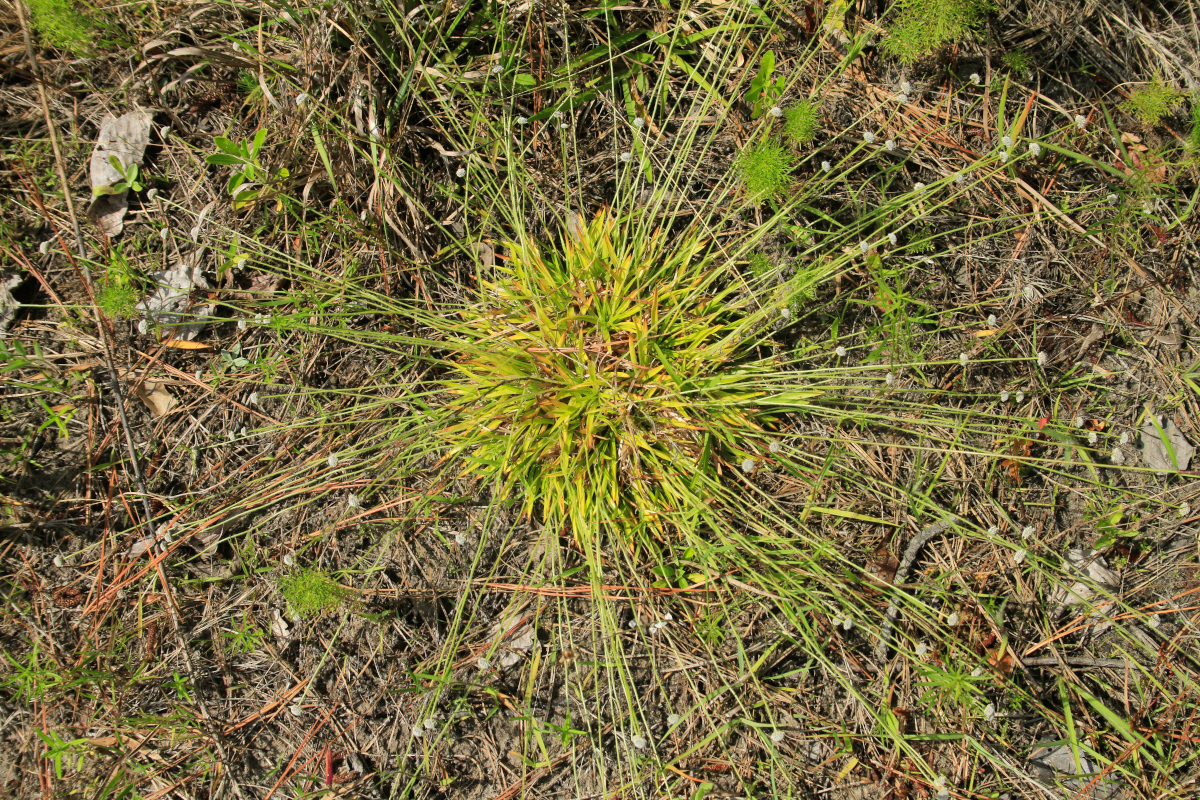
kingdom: Plantae
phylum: Tracheophyta
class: Liliopsida
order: Poales
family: Eriocaulaceae
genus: Paepalanthus
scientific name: Paepalanthus anceps
